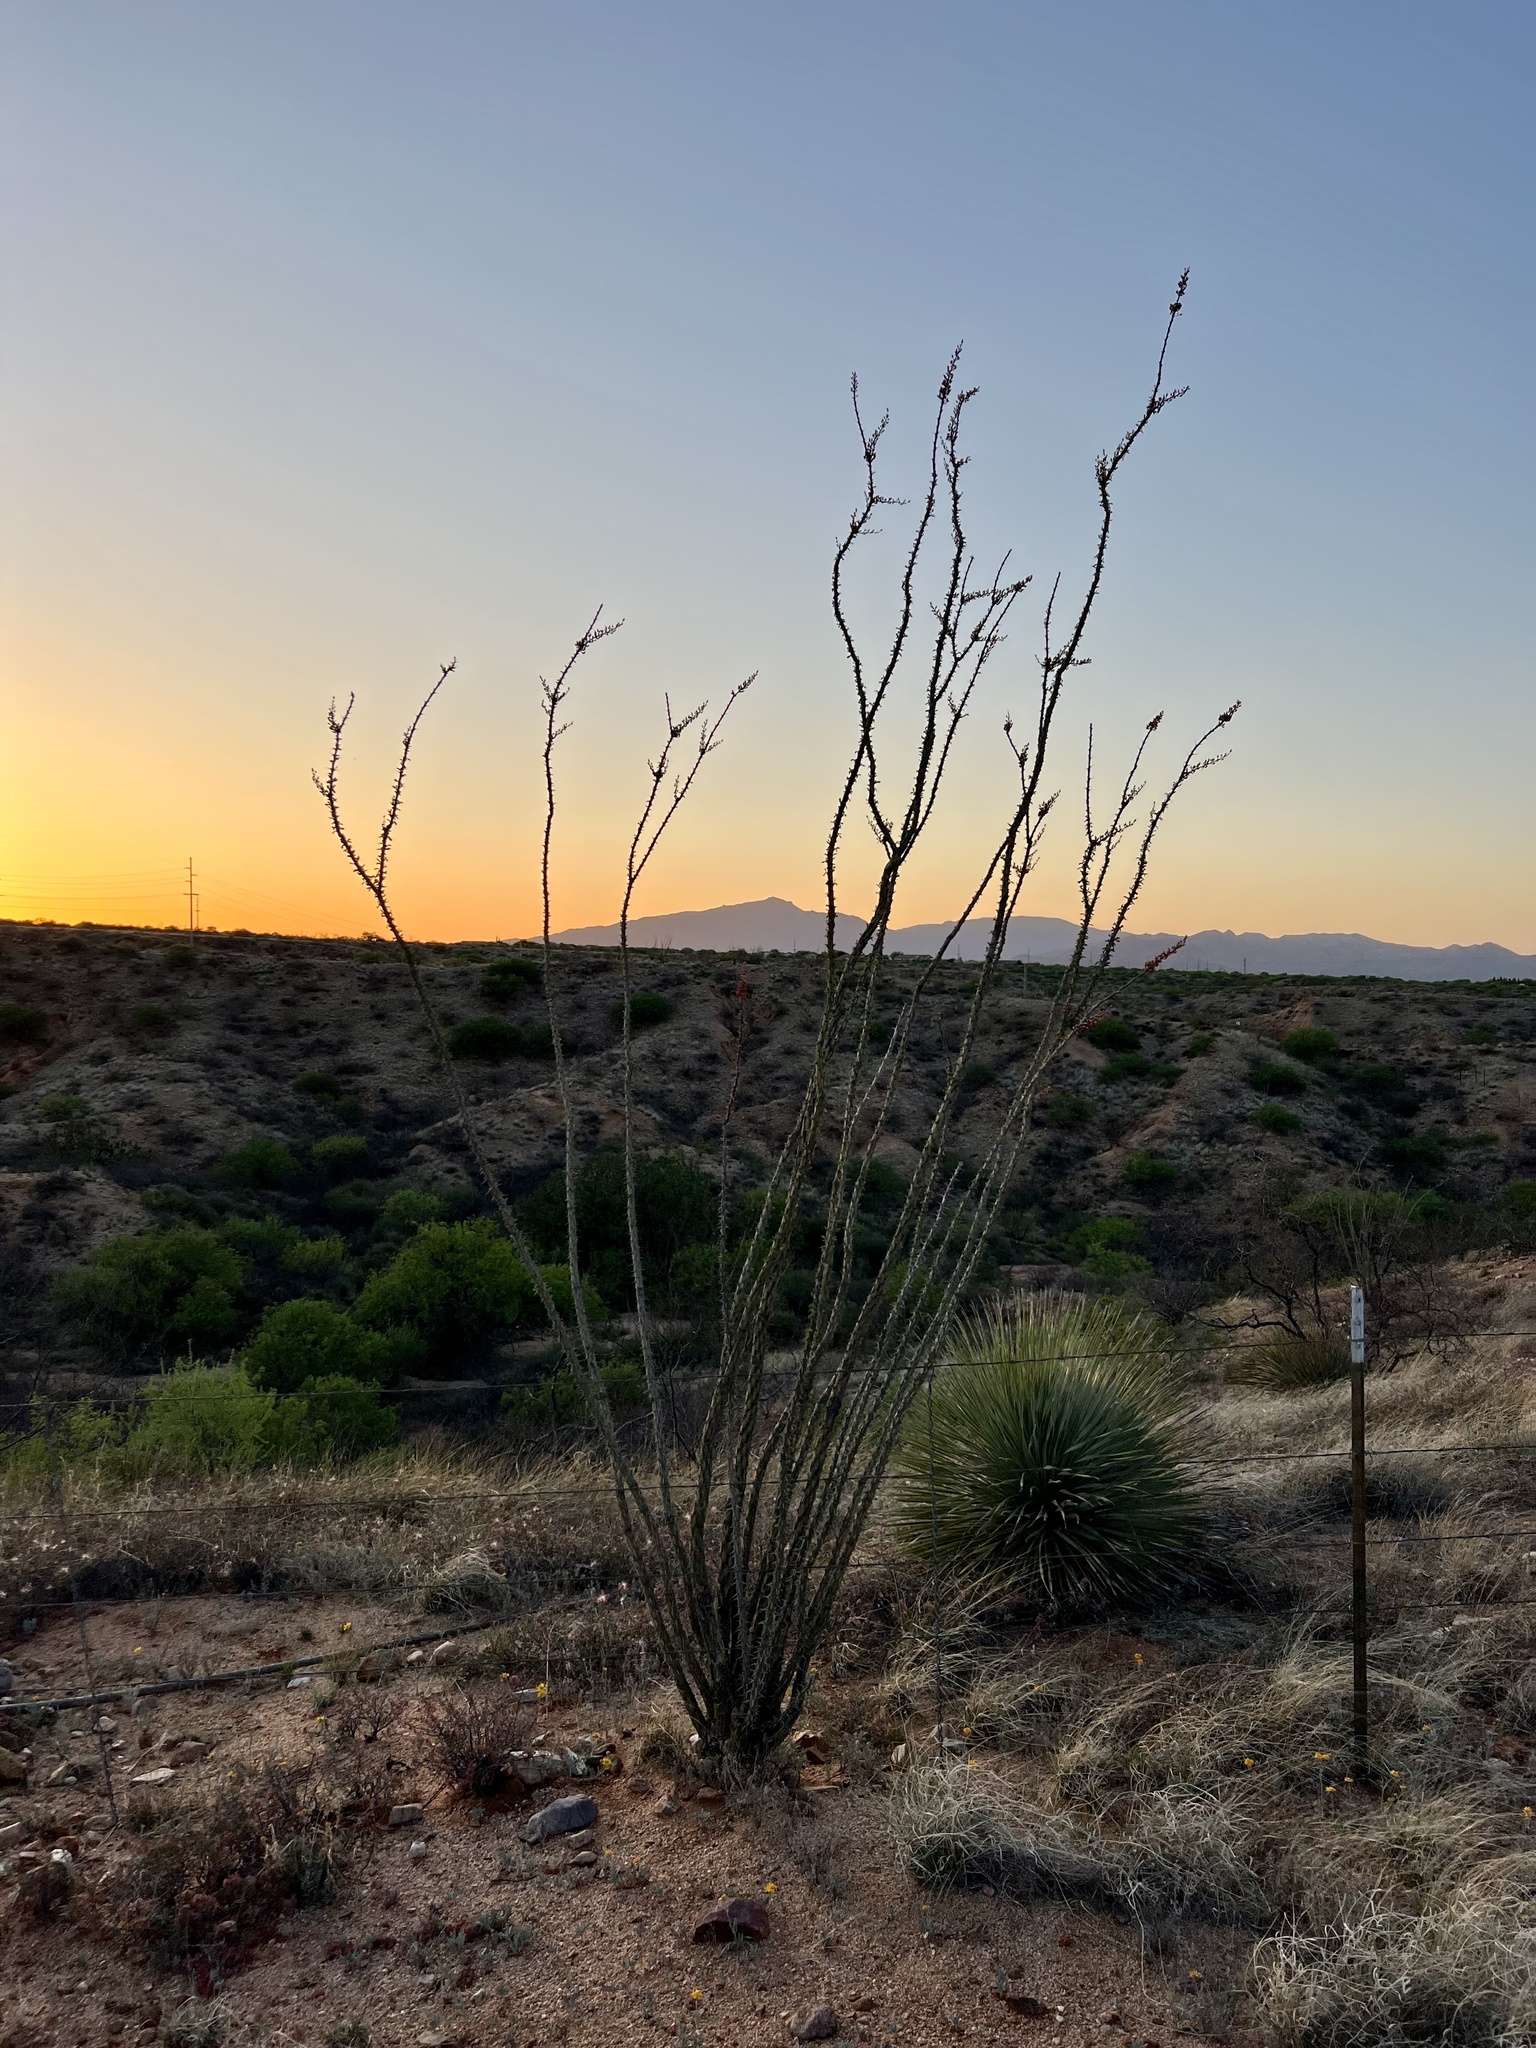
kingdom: Plantae
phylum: Tracheophyta
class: Magnoliopsida
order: Ericales
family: Fouquieriaceae
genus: Fouquieria
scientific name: Fouquieria splendens
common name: Vine-cactus
